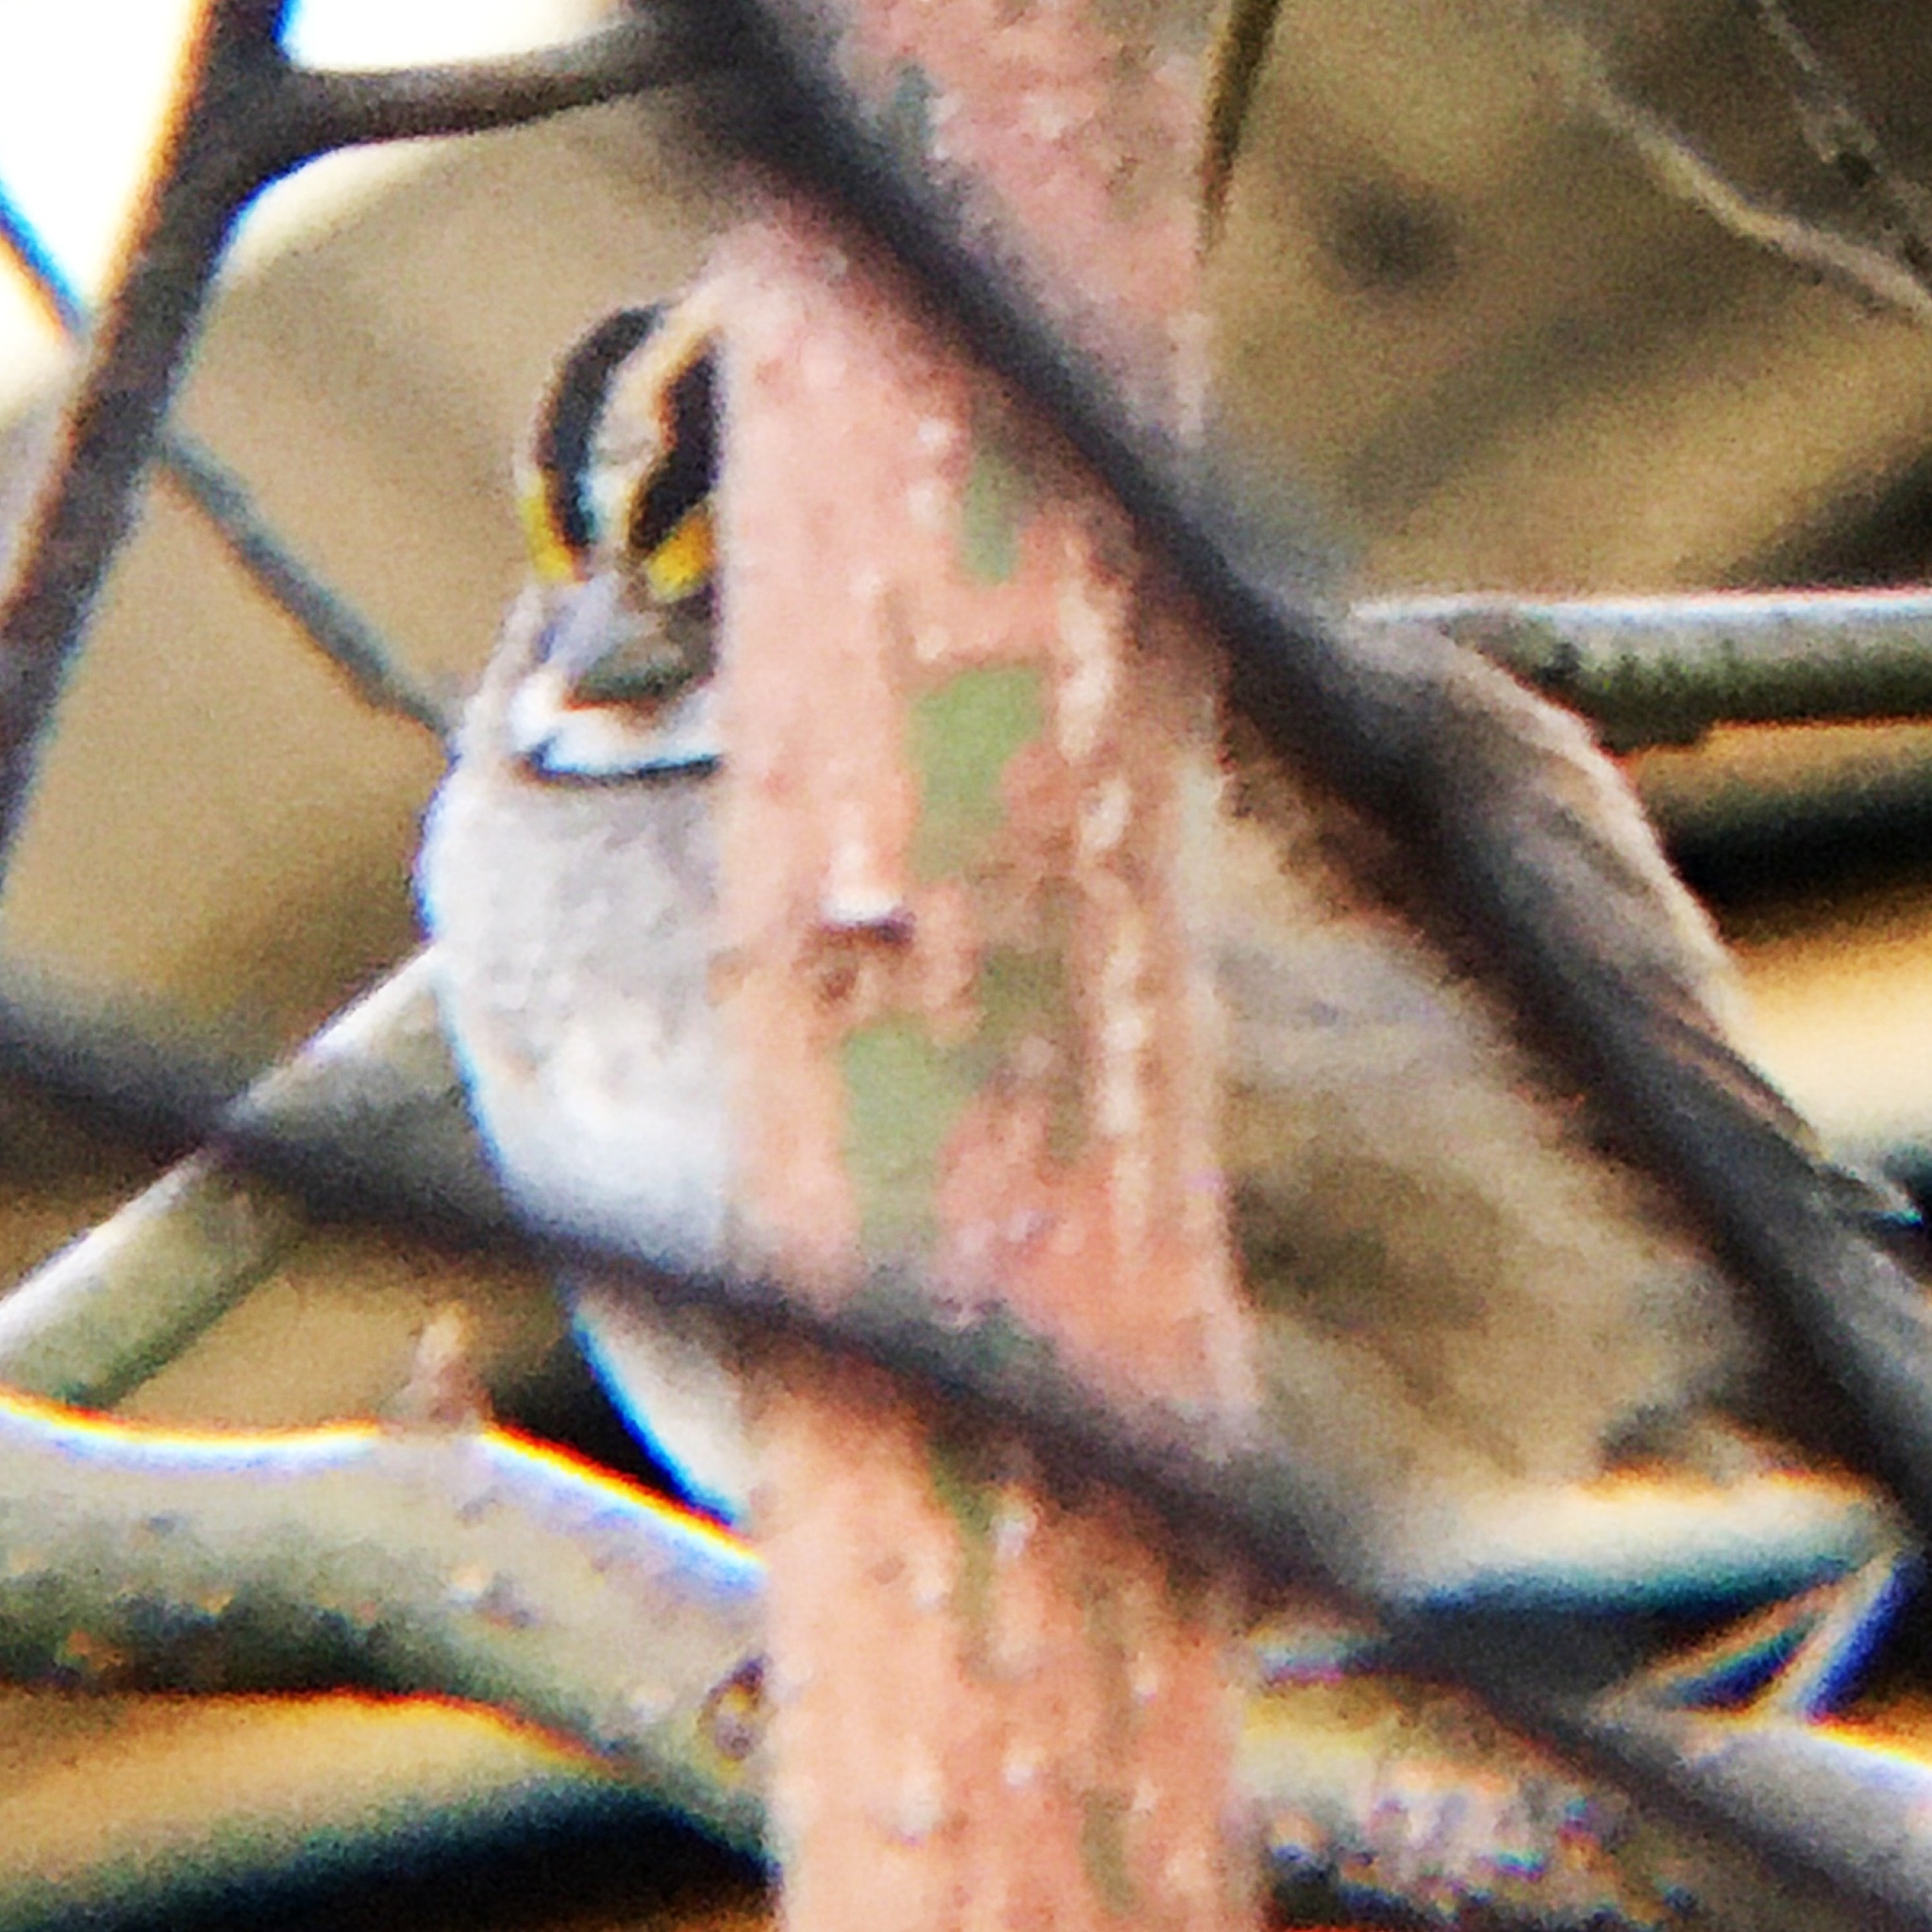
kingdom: Animalia
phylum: Chordata
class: Aves
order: Passeriformes
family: Passerellidae
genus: Zonotrichia
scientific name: Zonotrichia albicollis
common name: White-throated sparrow
